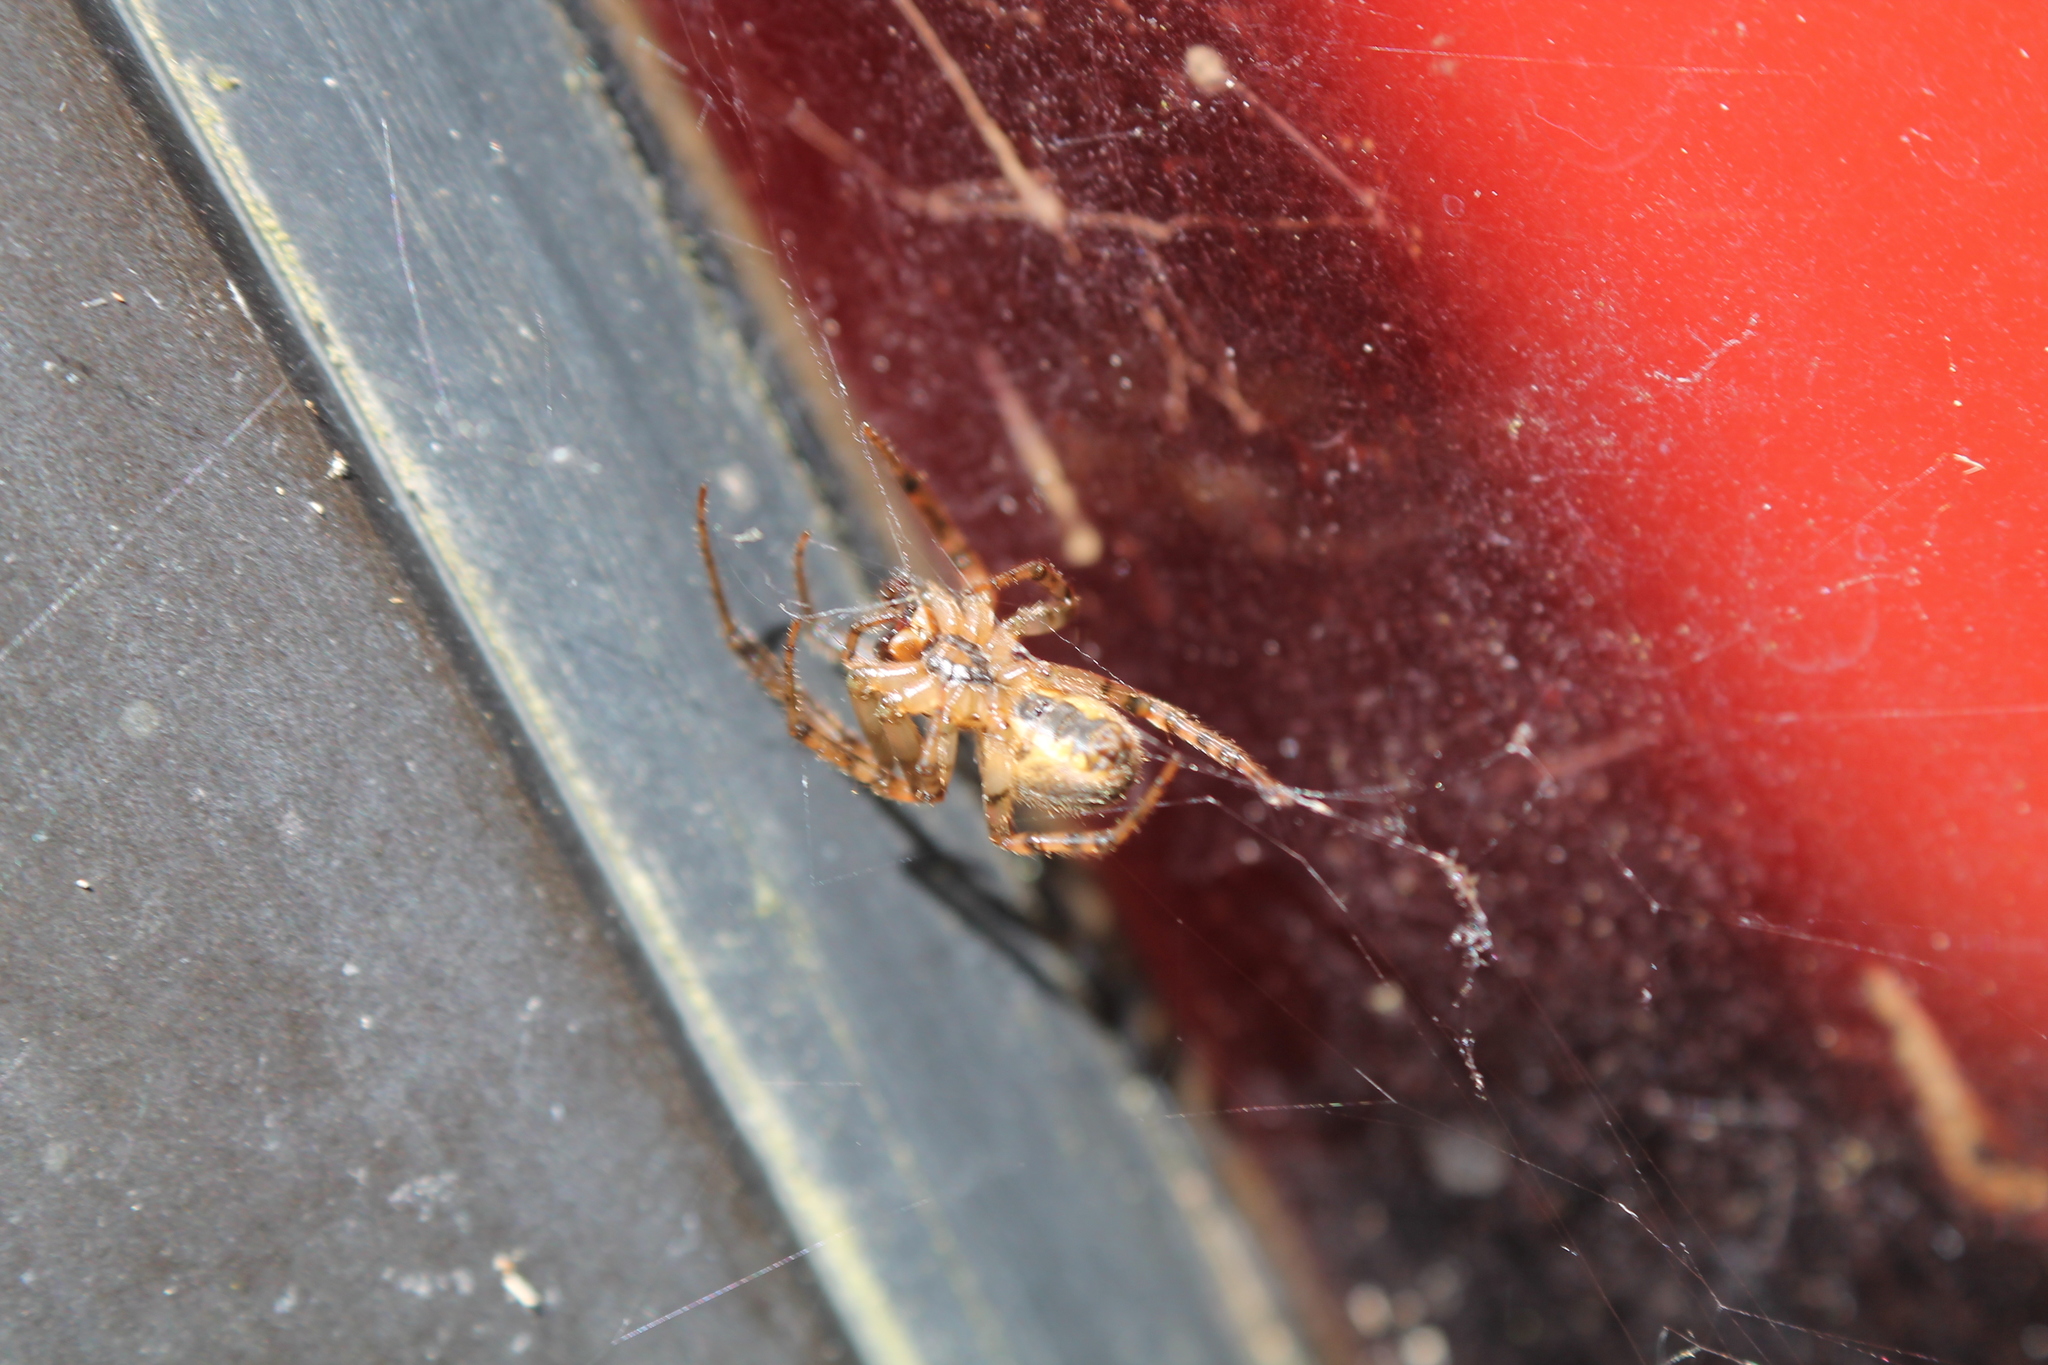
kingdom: Animalia
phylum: Arthropoda
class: Arachnida
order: Araneae
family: Araneidae
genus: Zygiella
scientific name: Zygiella x-notata
